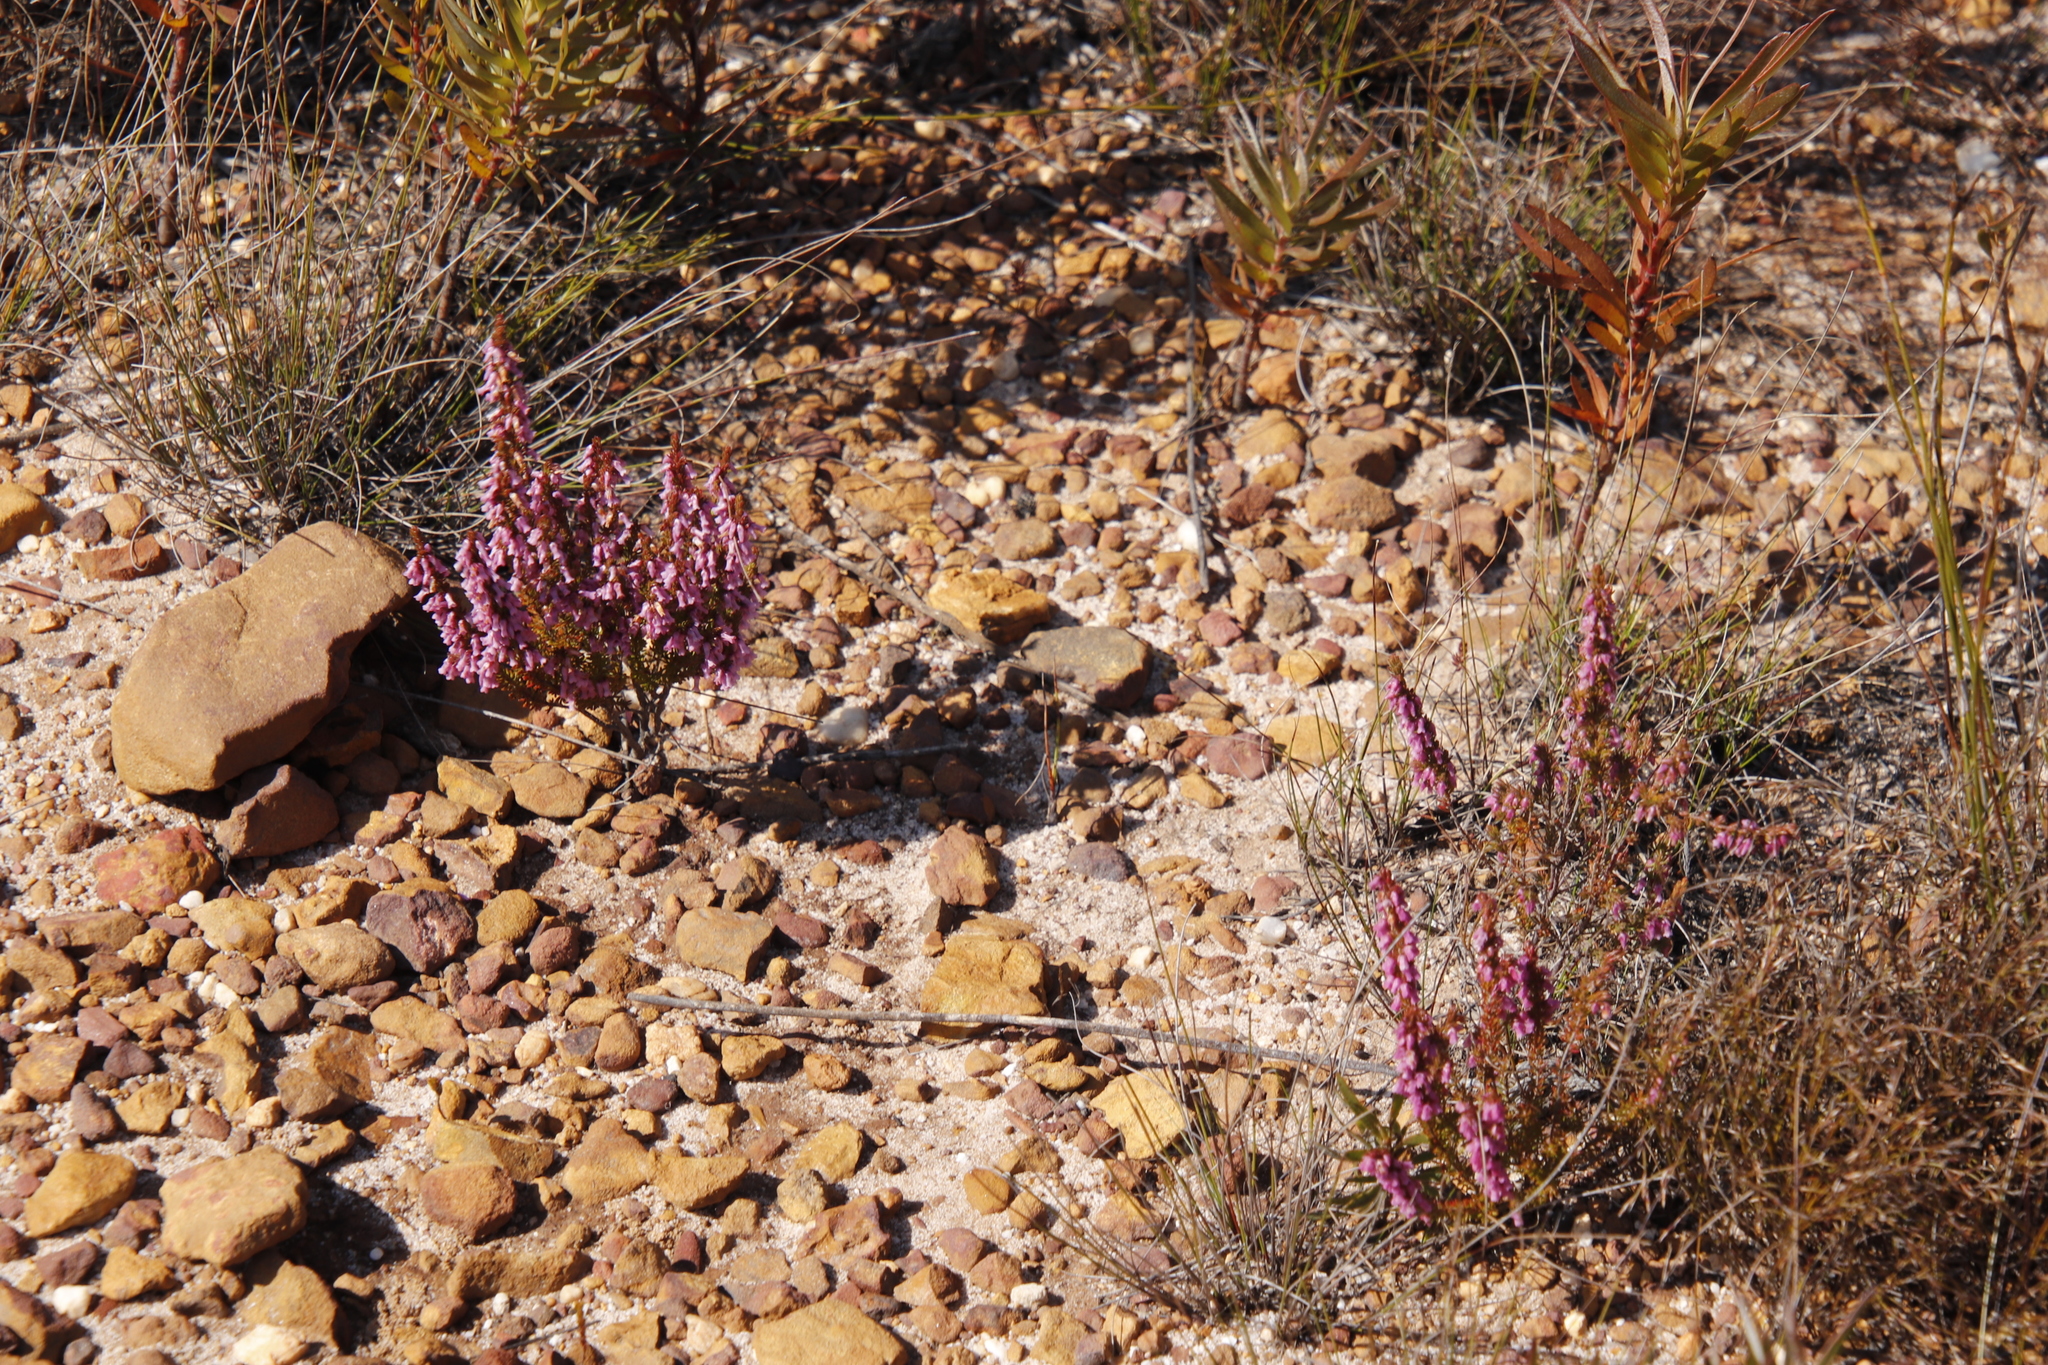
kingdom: Plantae
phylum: Tracheophyta
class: Magnoliopsida
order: Ericales
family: Ericaceae
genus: Erica
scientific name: Erica intervallaris
